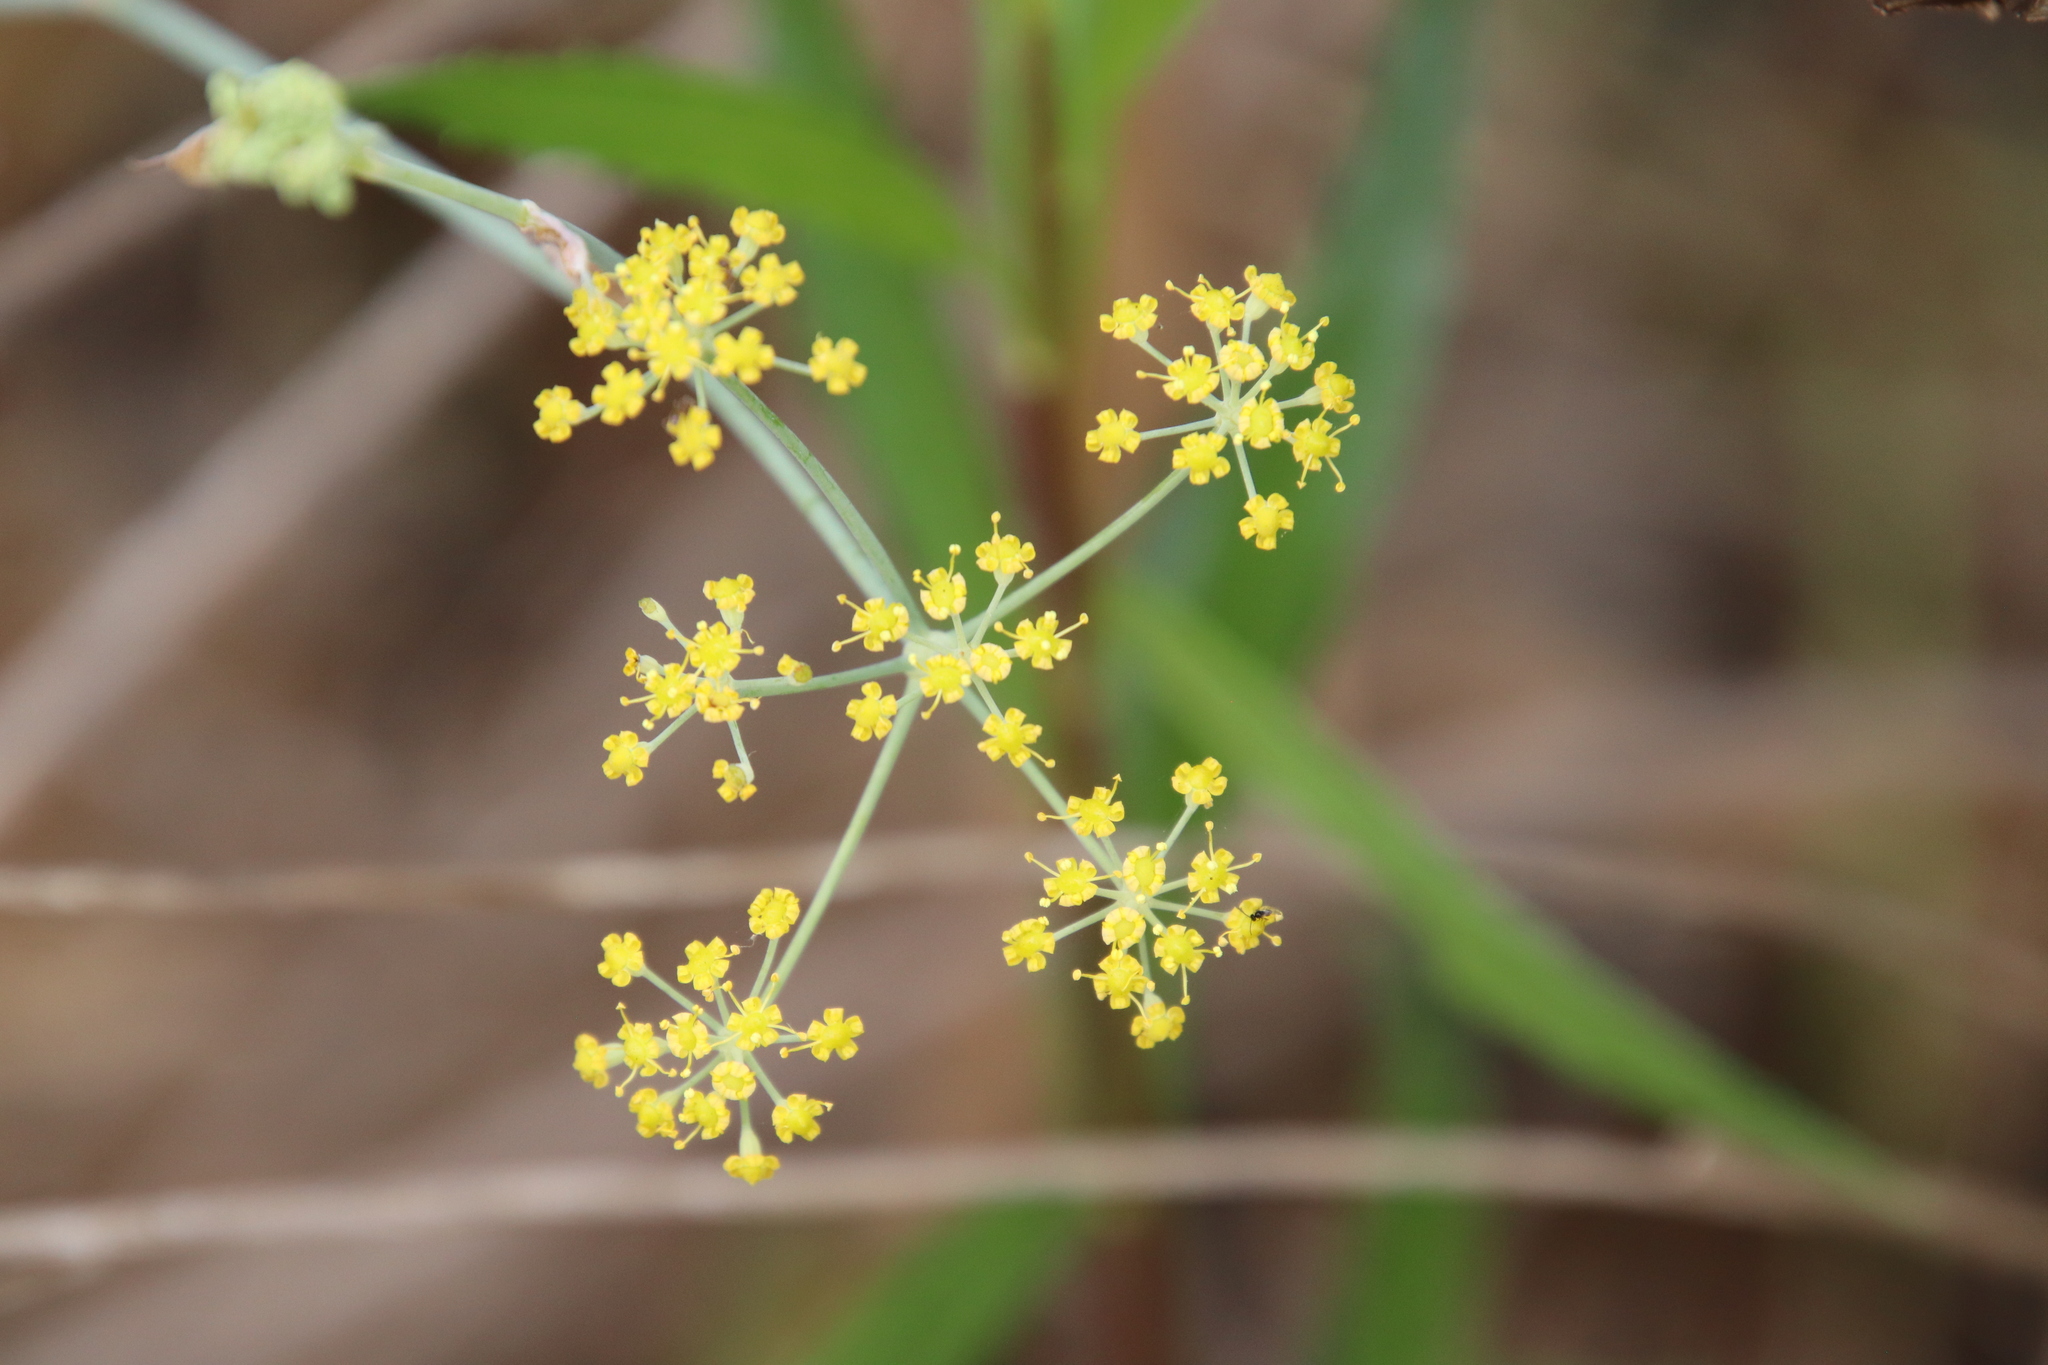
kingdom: Plantae
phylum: Tracheophyta
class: Magnoliopsida
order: Apiales
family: Apiaceae
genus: Foeniculum
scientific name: Foeniculum vulgare
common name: Fennel
